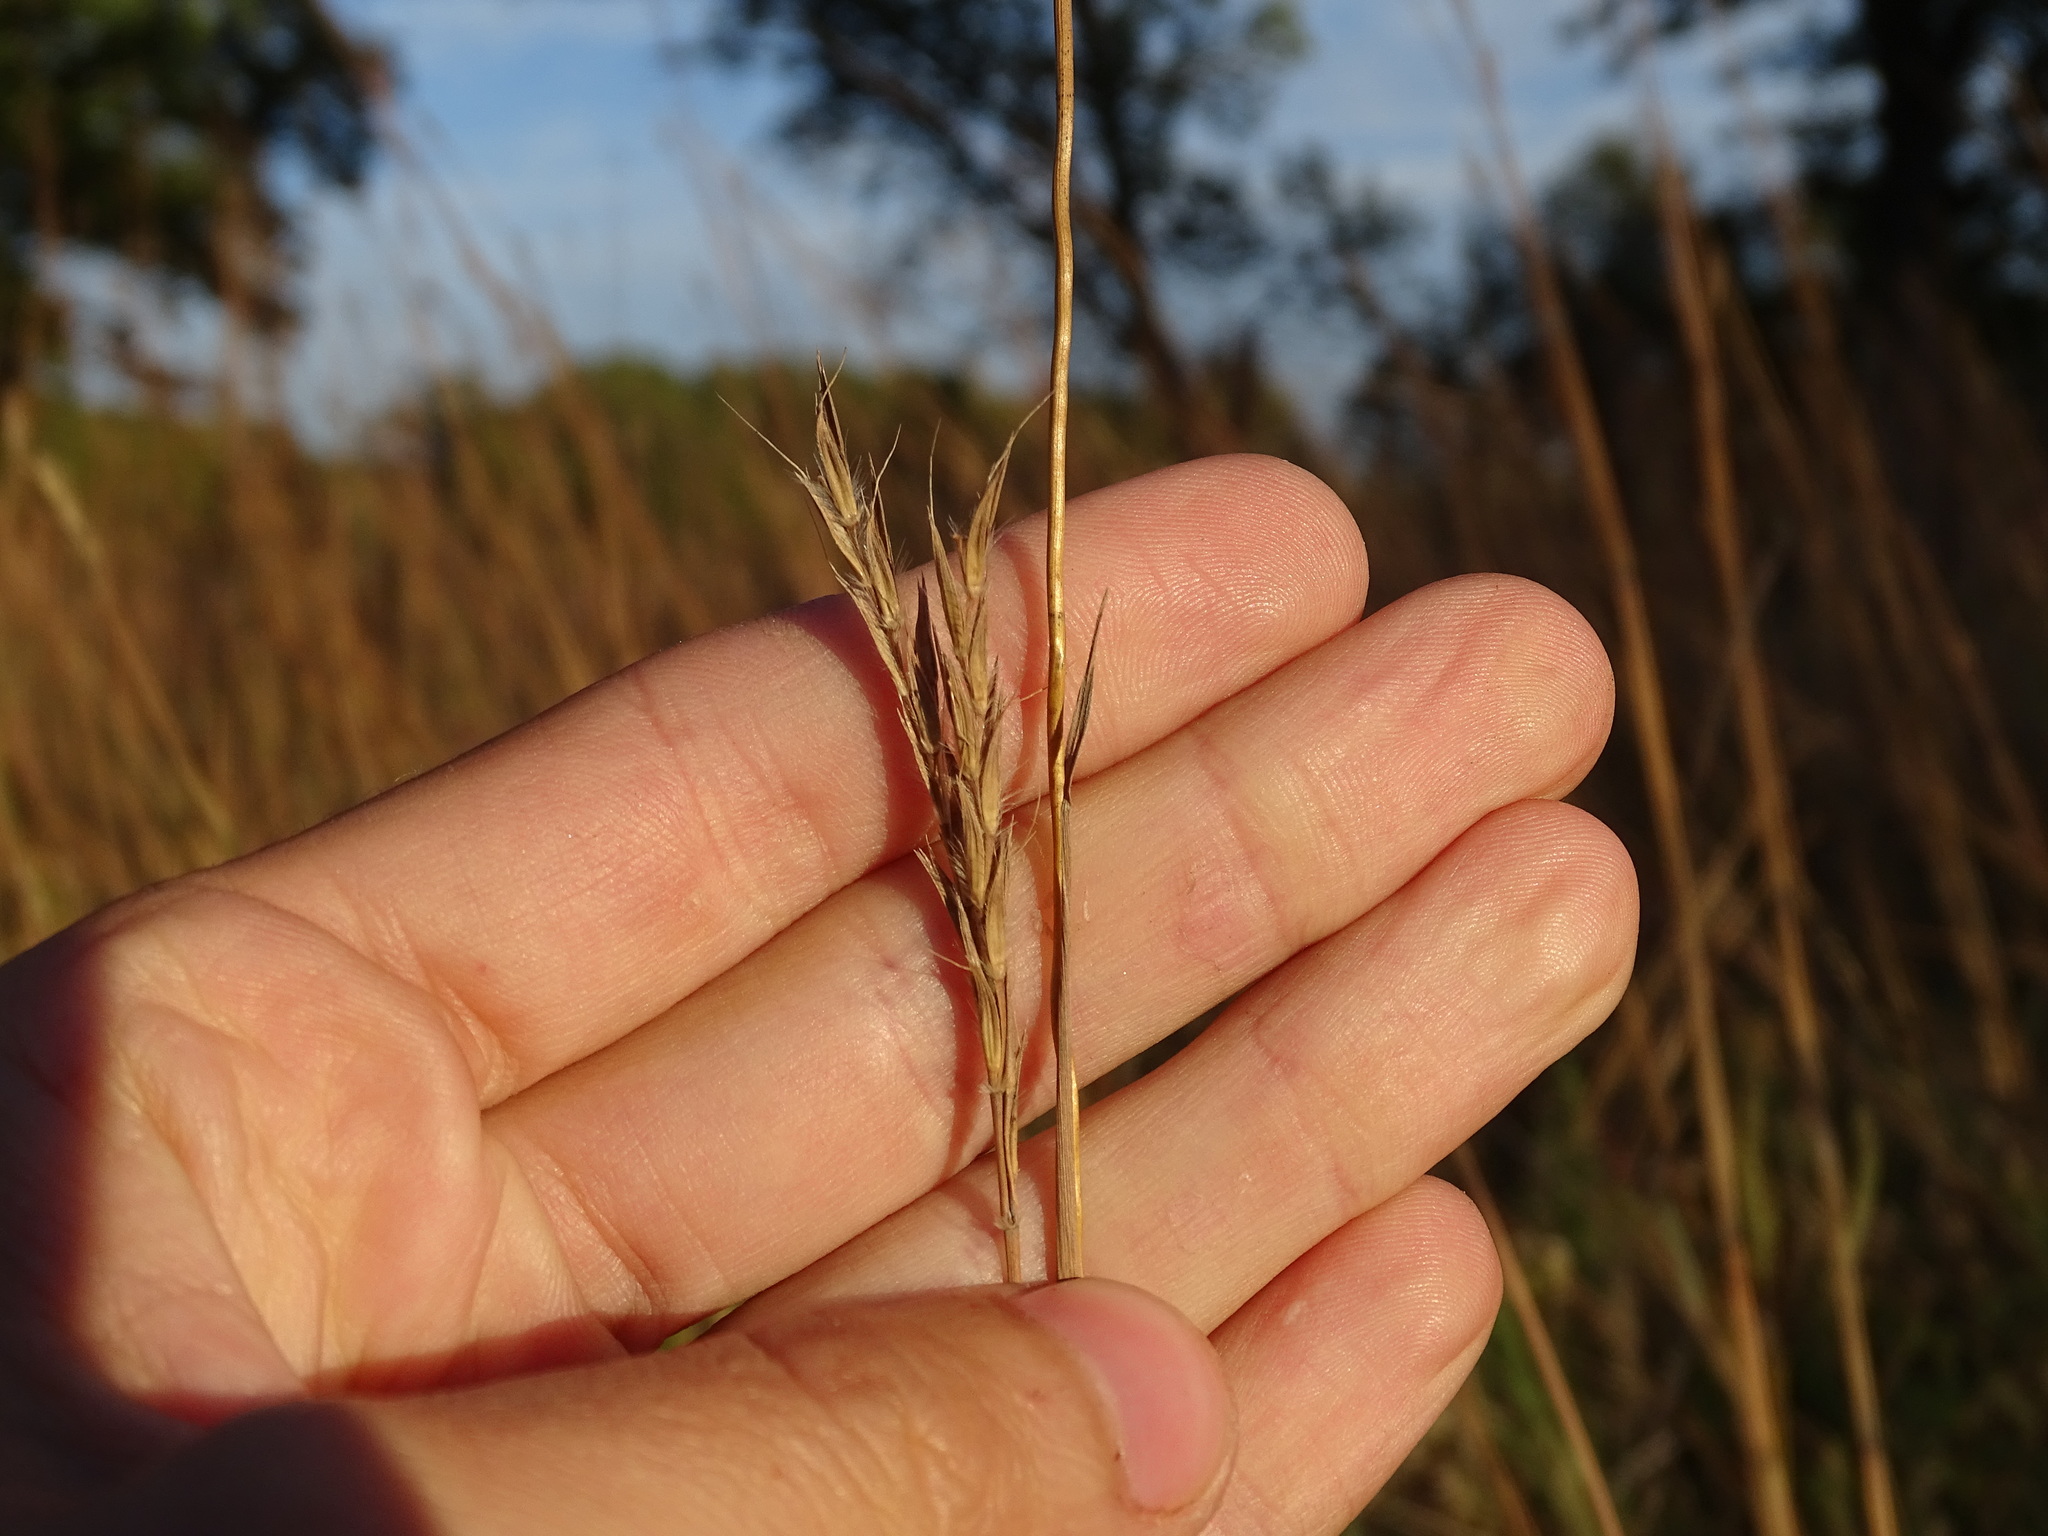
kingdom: Plantae
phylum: Tracheophyta
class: Liliopsida
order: Poales
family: Poaceae
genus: Andropogon
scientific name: Andropogon gerardi
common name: Big bluestem
